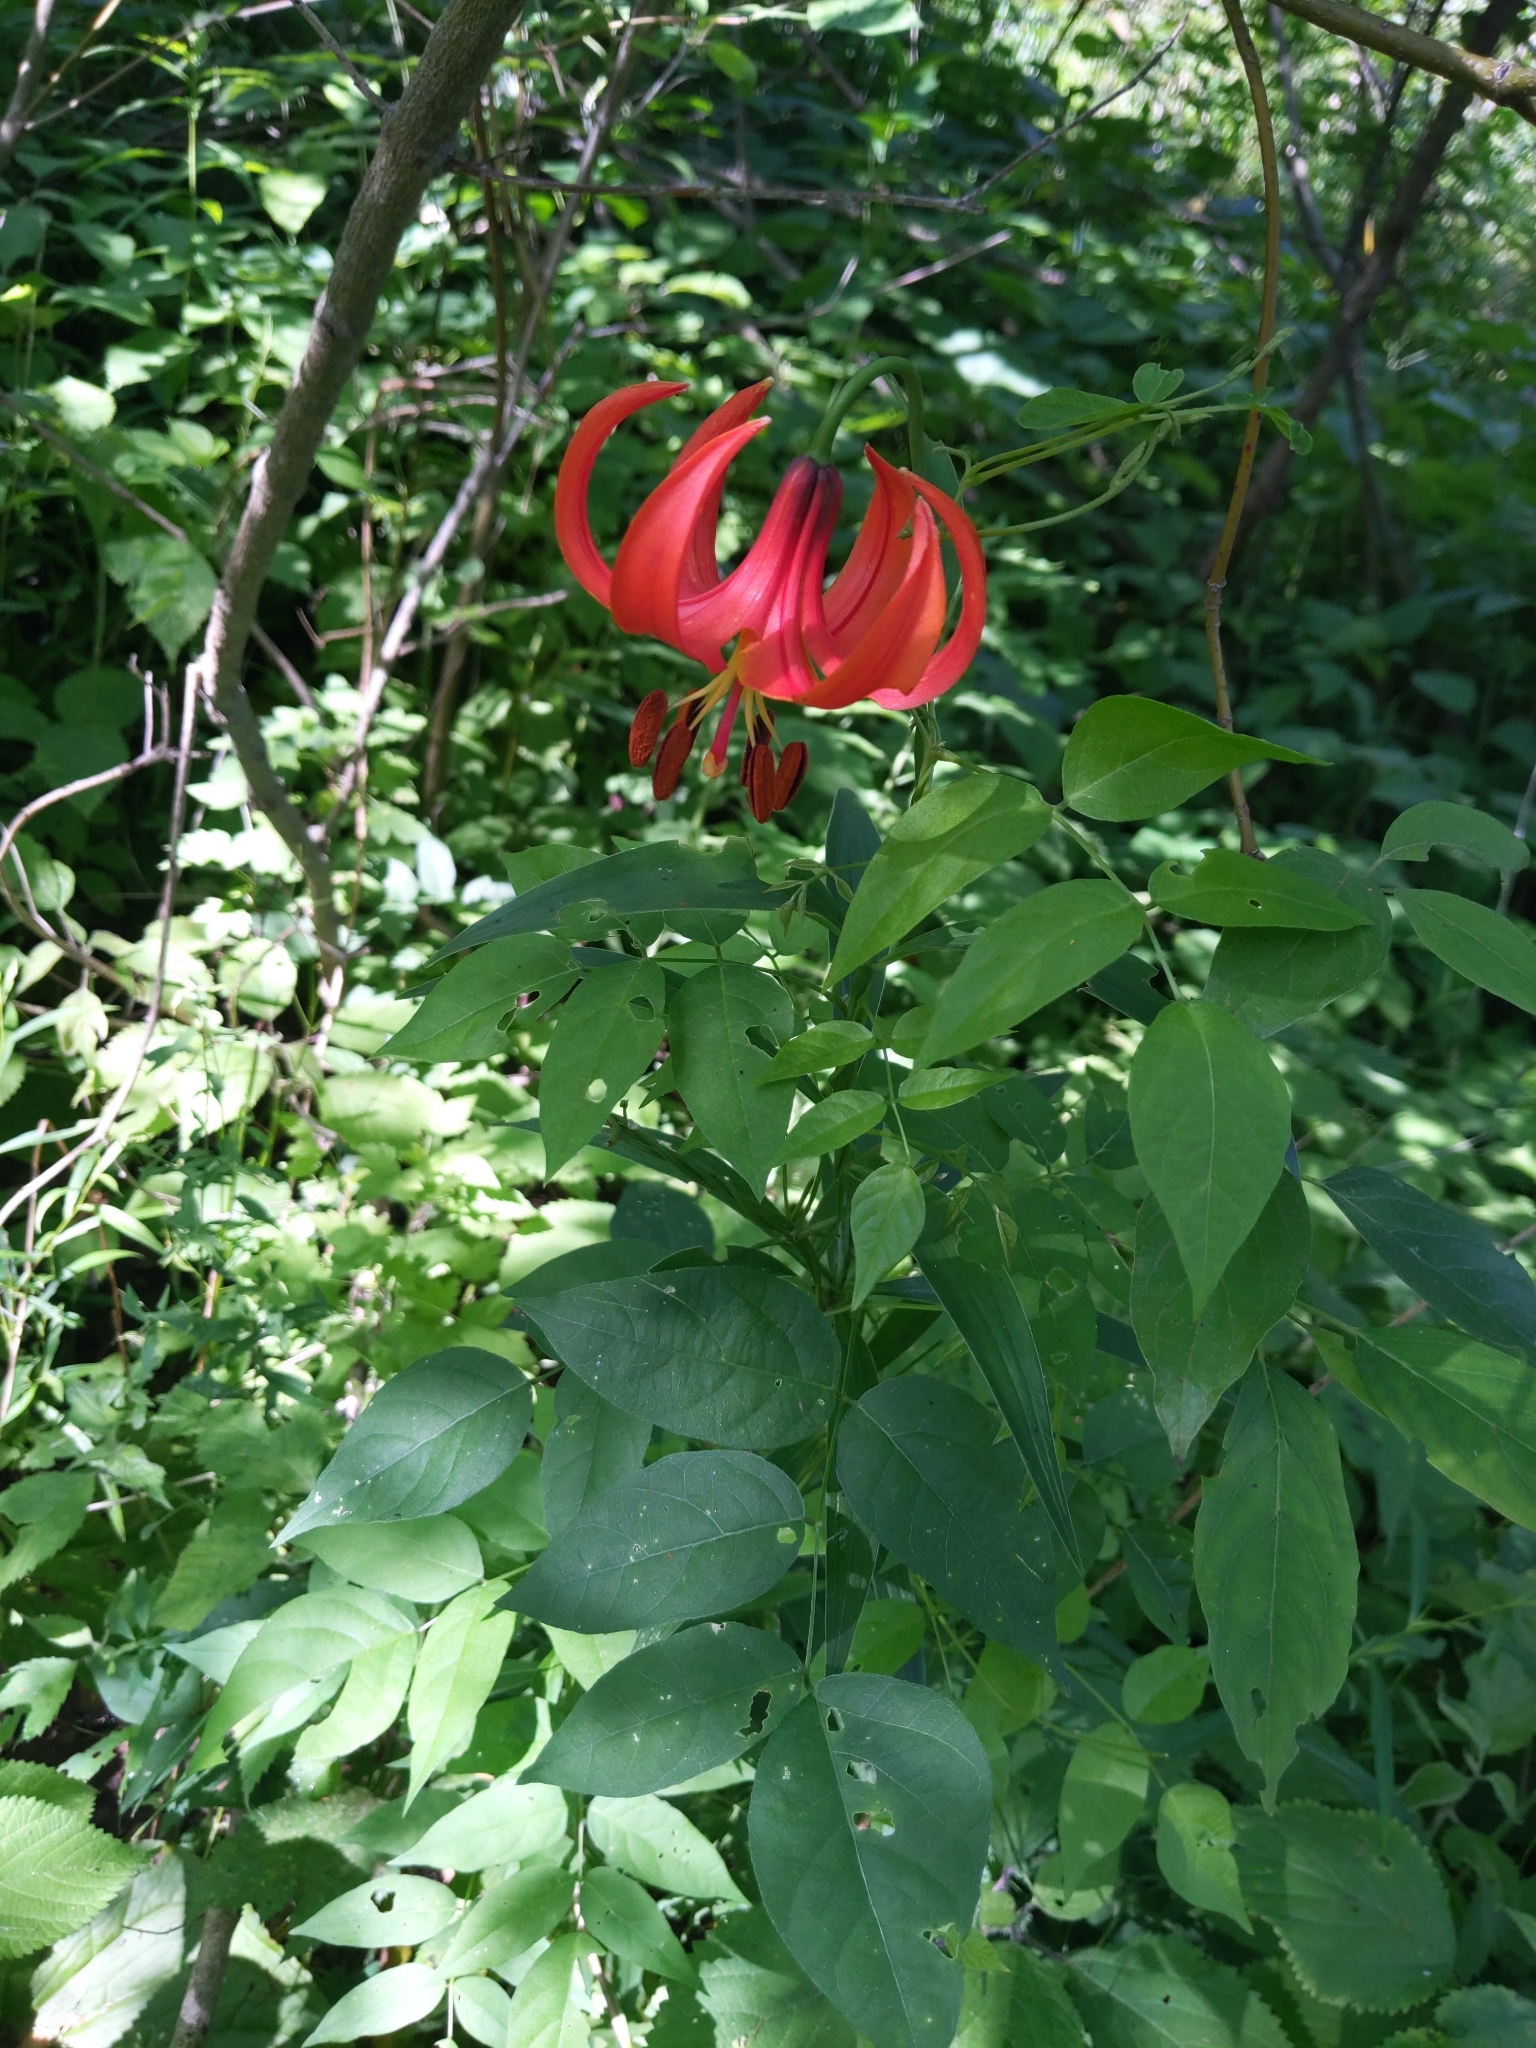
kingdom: Plantae
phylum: Tracheophyta
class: Liliopsida
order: Liliales
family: Liliaceae
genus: Lilium
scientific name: Lilium michiganense
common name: Michigan lily
